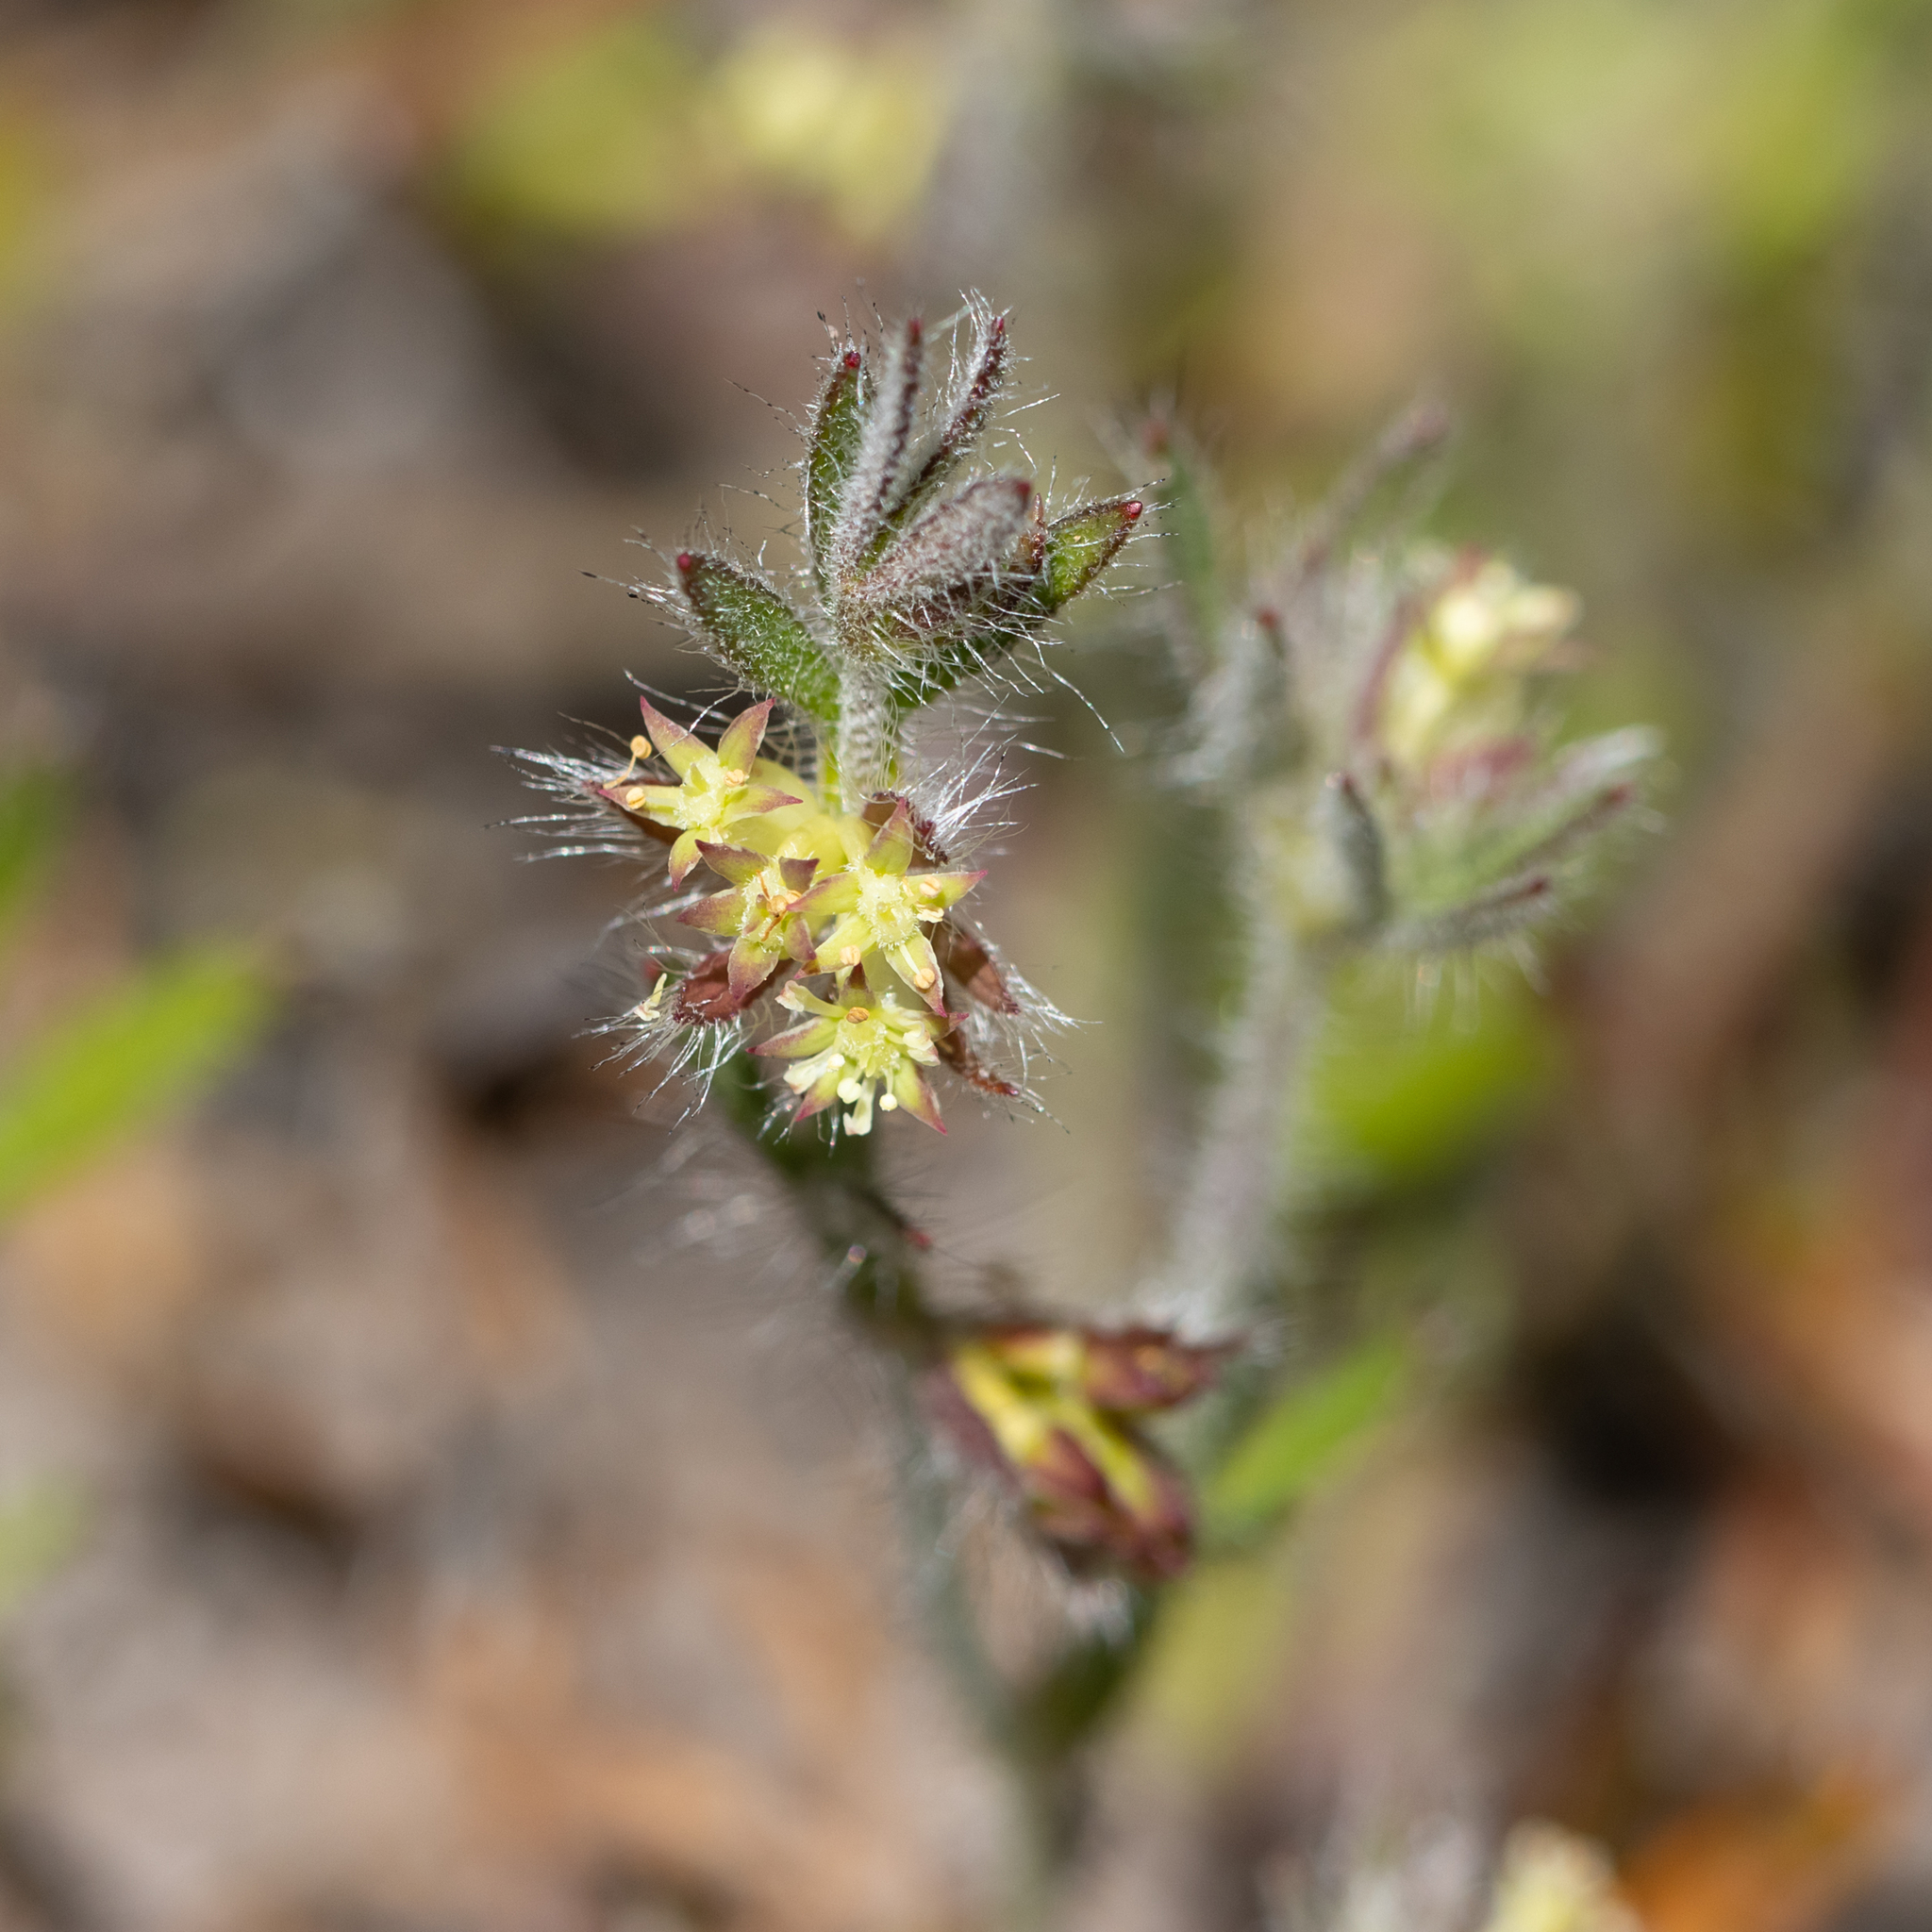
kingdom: Plantae
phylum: Tracheophyta
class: Magnoliopsida
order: Apiales
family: Apiaceae
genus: Xanthosia
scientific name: Xanthosia huegelii
